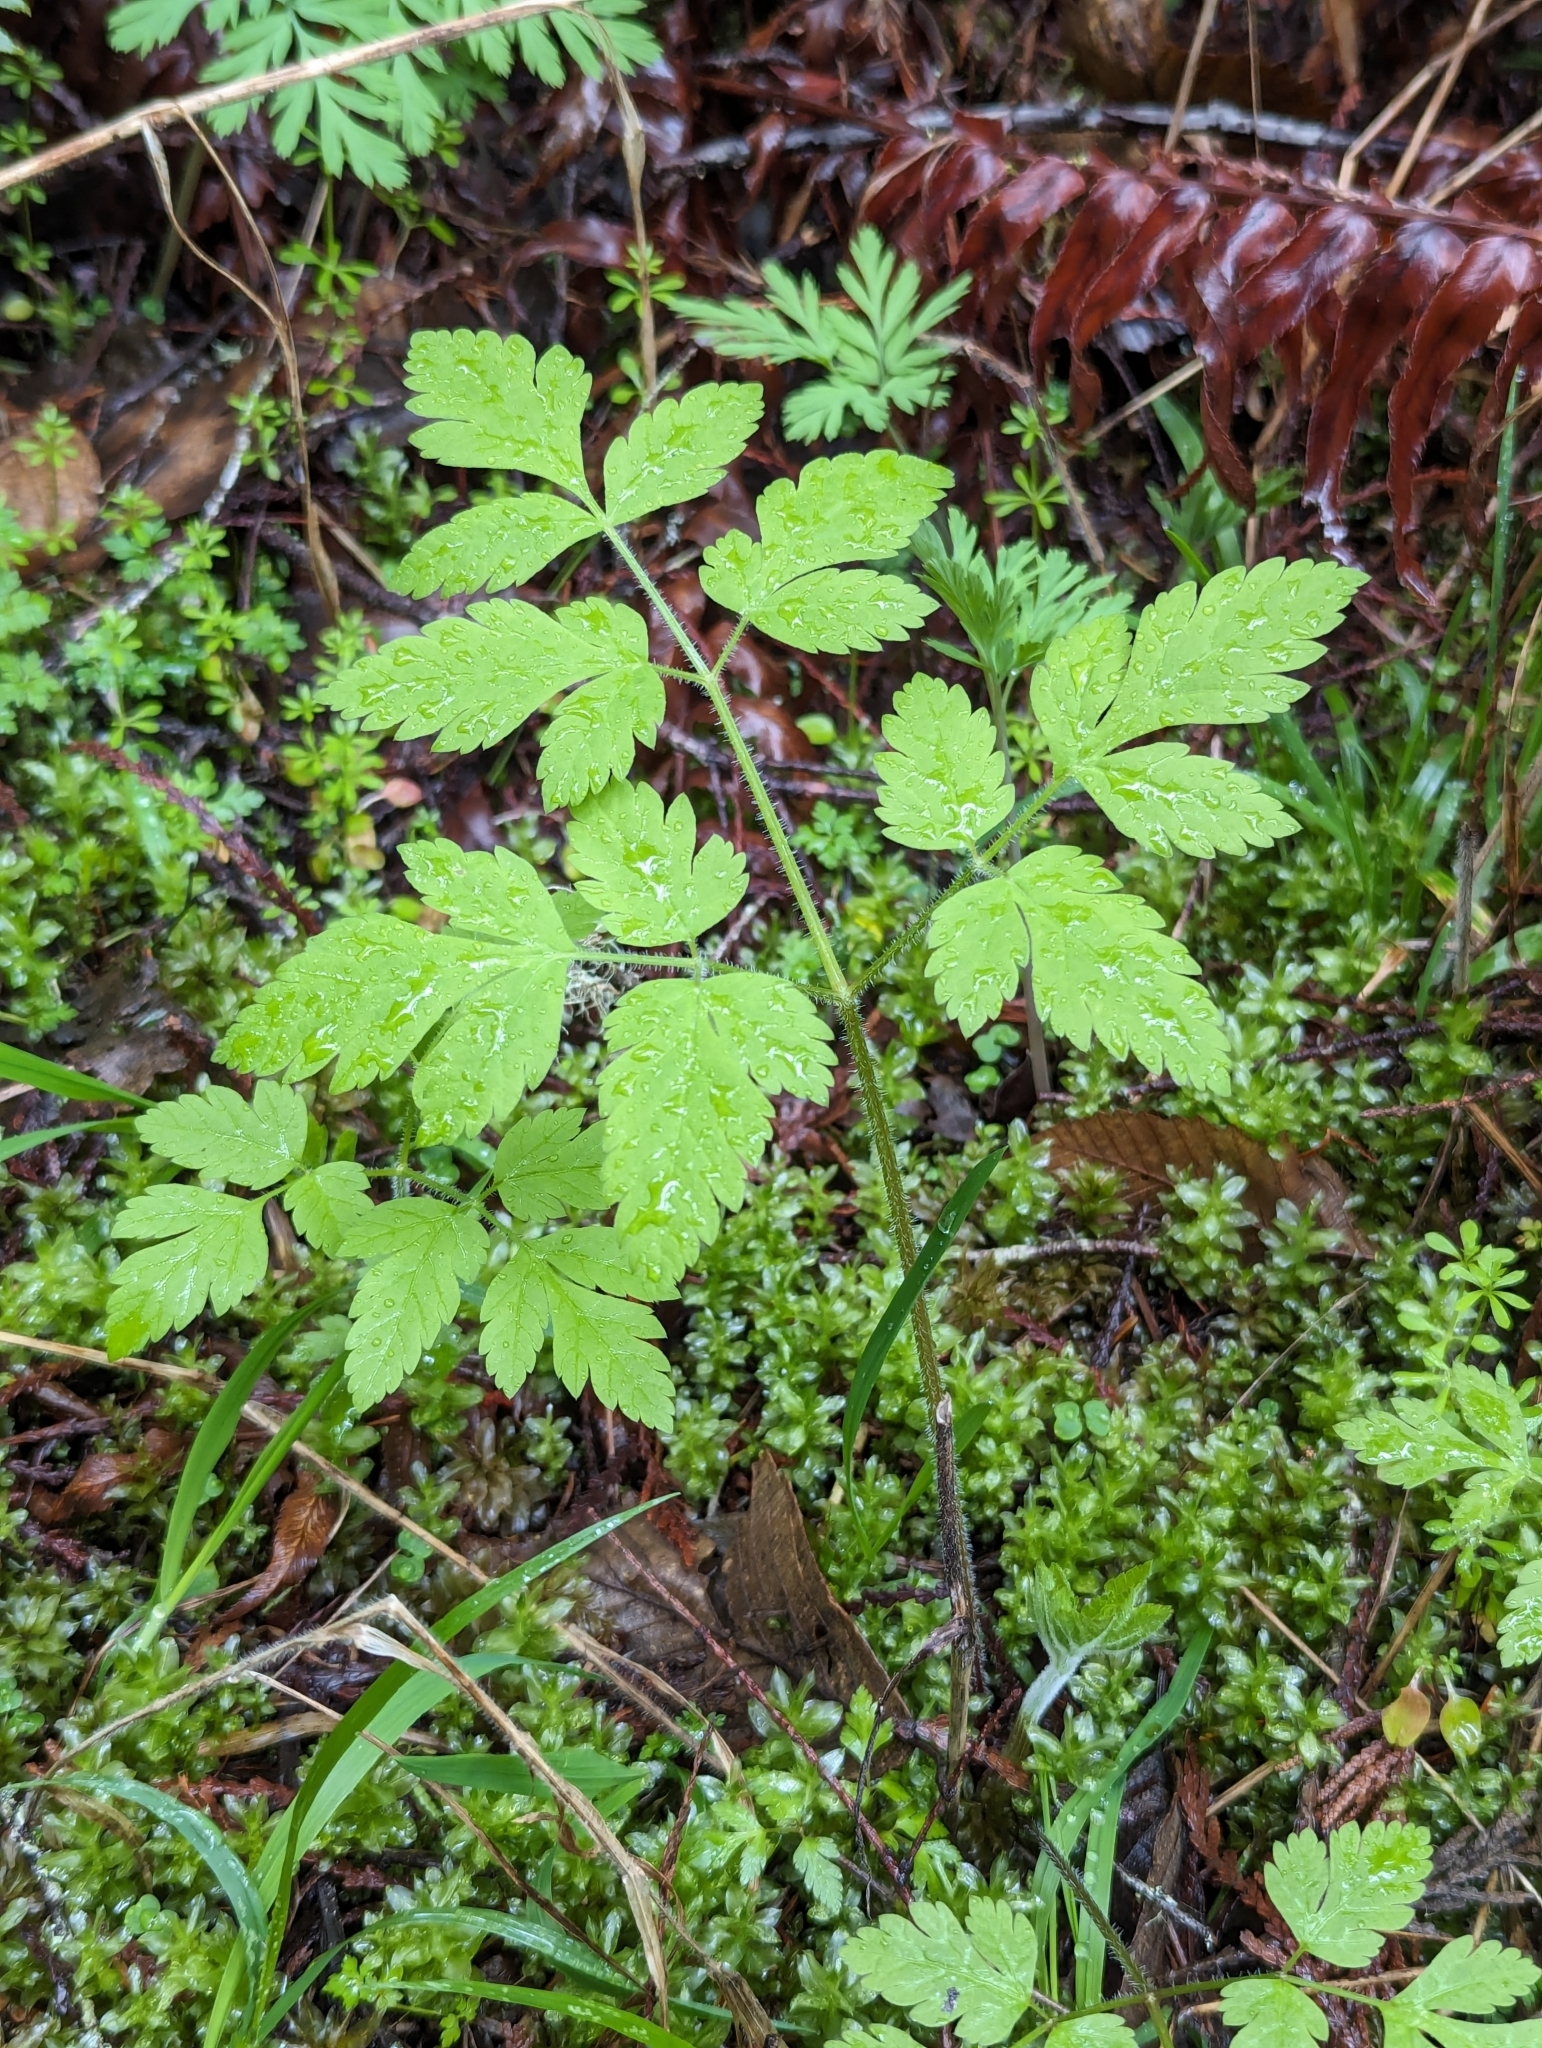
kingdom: Plantae
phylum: Tracheophyta
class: Magnoliopsida
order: Apiales
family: Apiaceae
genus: Osmorhiza
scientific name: Osmorhiza berteroi
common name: Mountain sweet cicely
